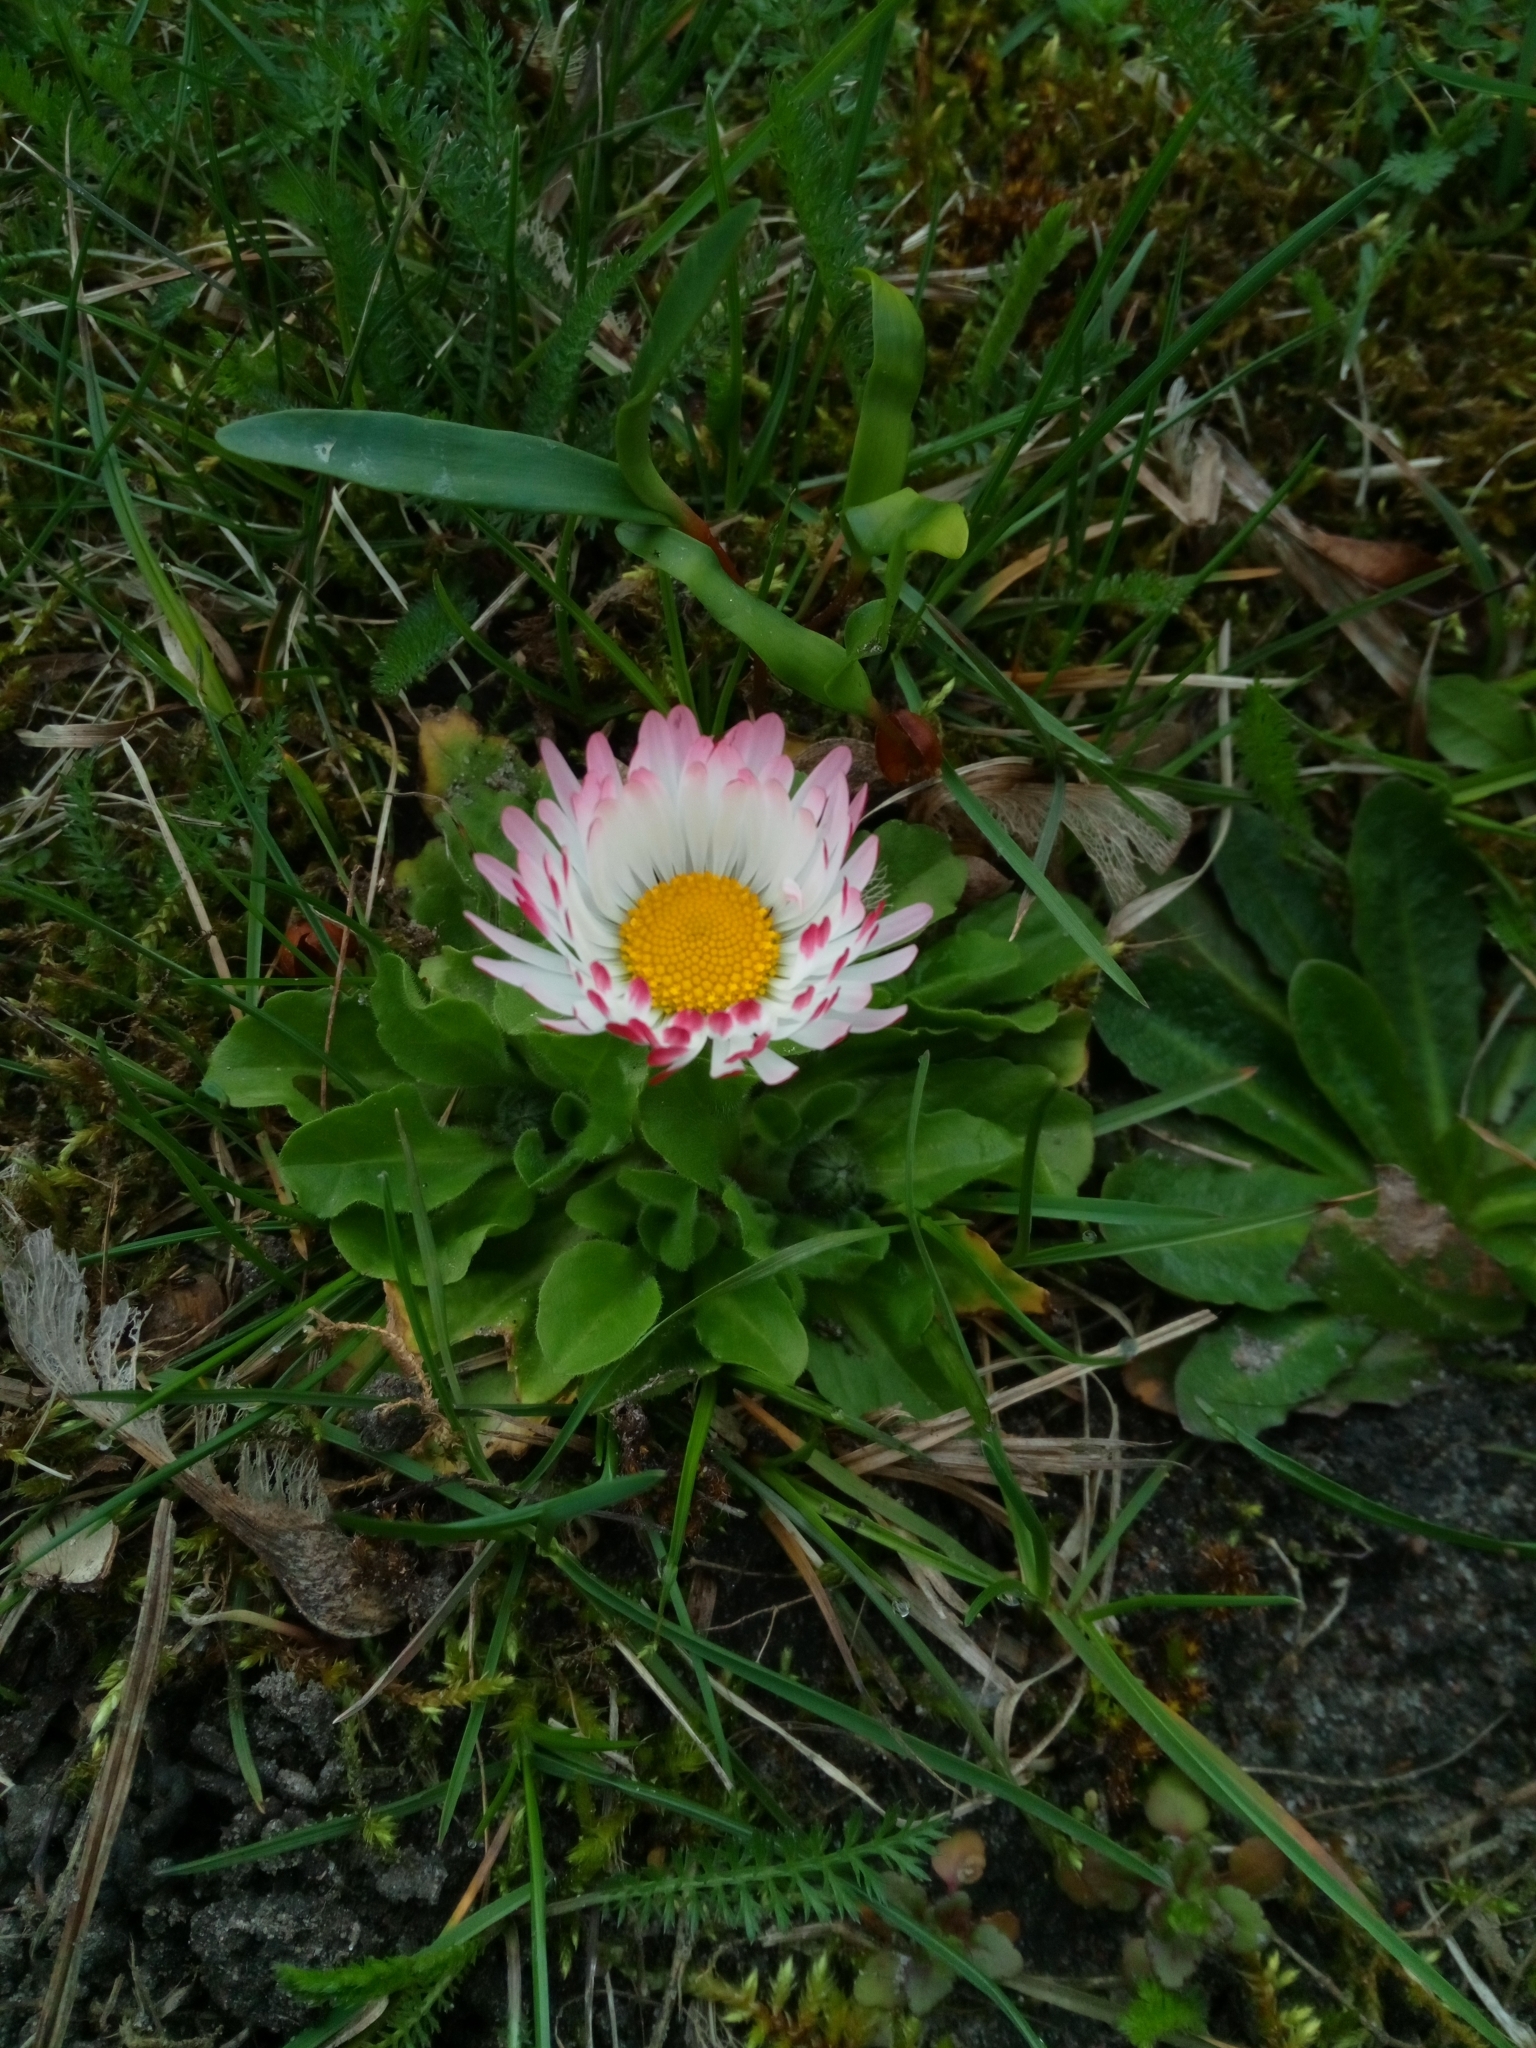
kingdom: Plantae
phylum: Tracheophyta
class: Magnoliopsida
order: Asterales
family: Asteraceae
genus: Bellis
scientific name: Bellis perennis
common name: Lawndaisy
